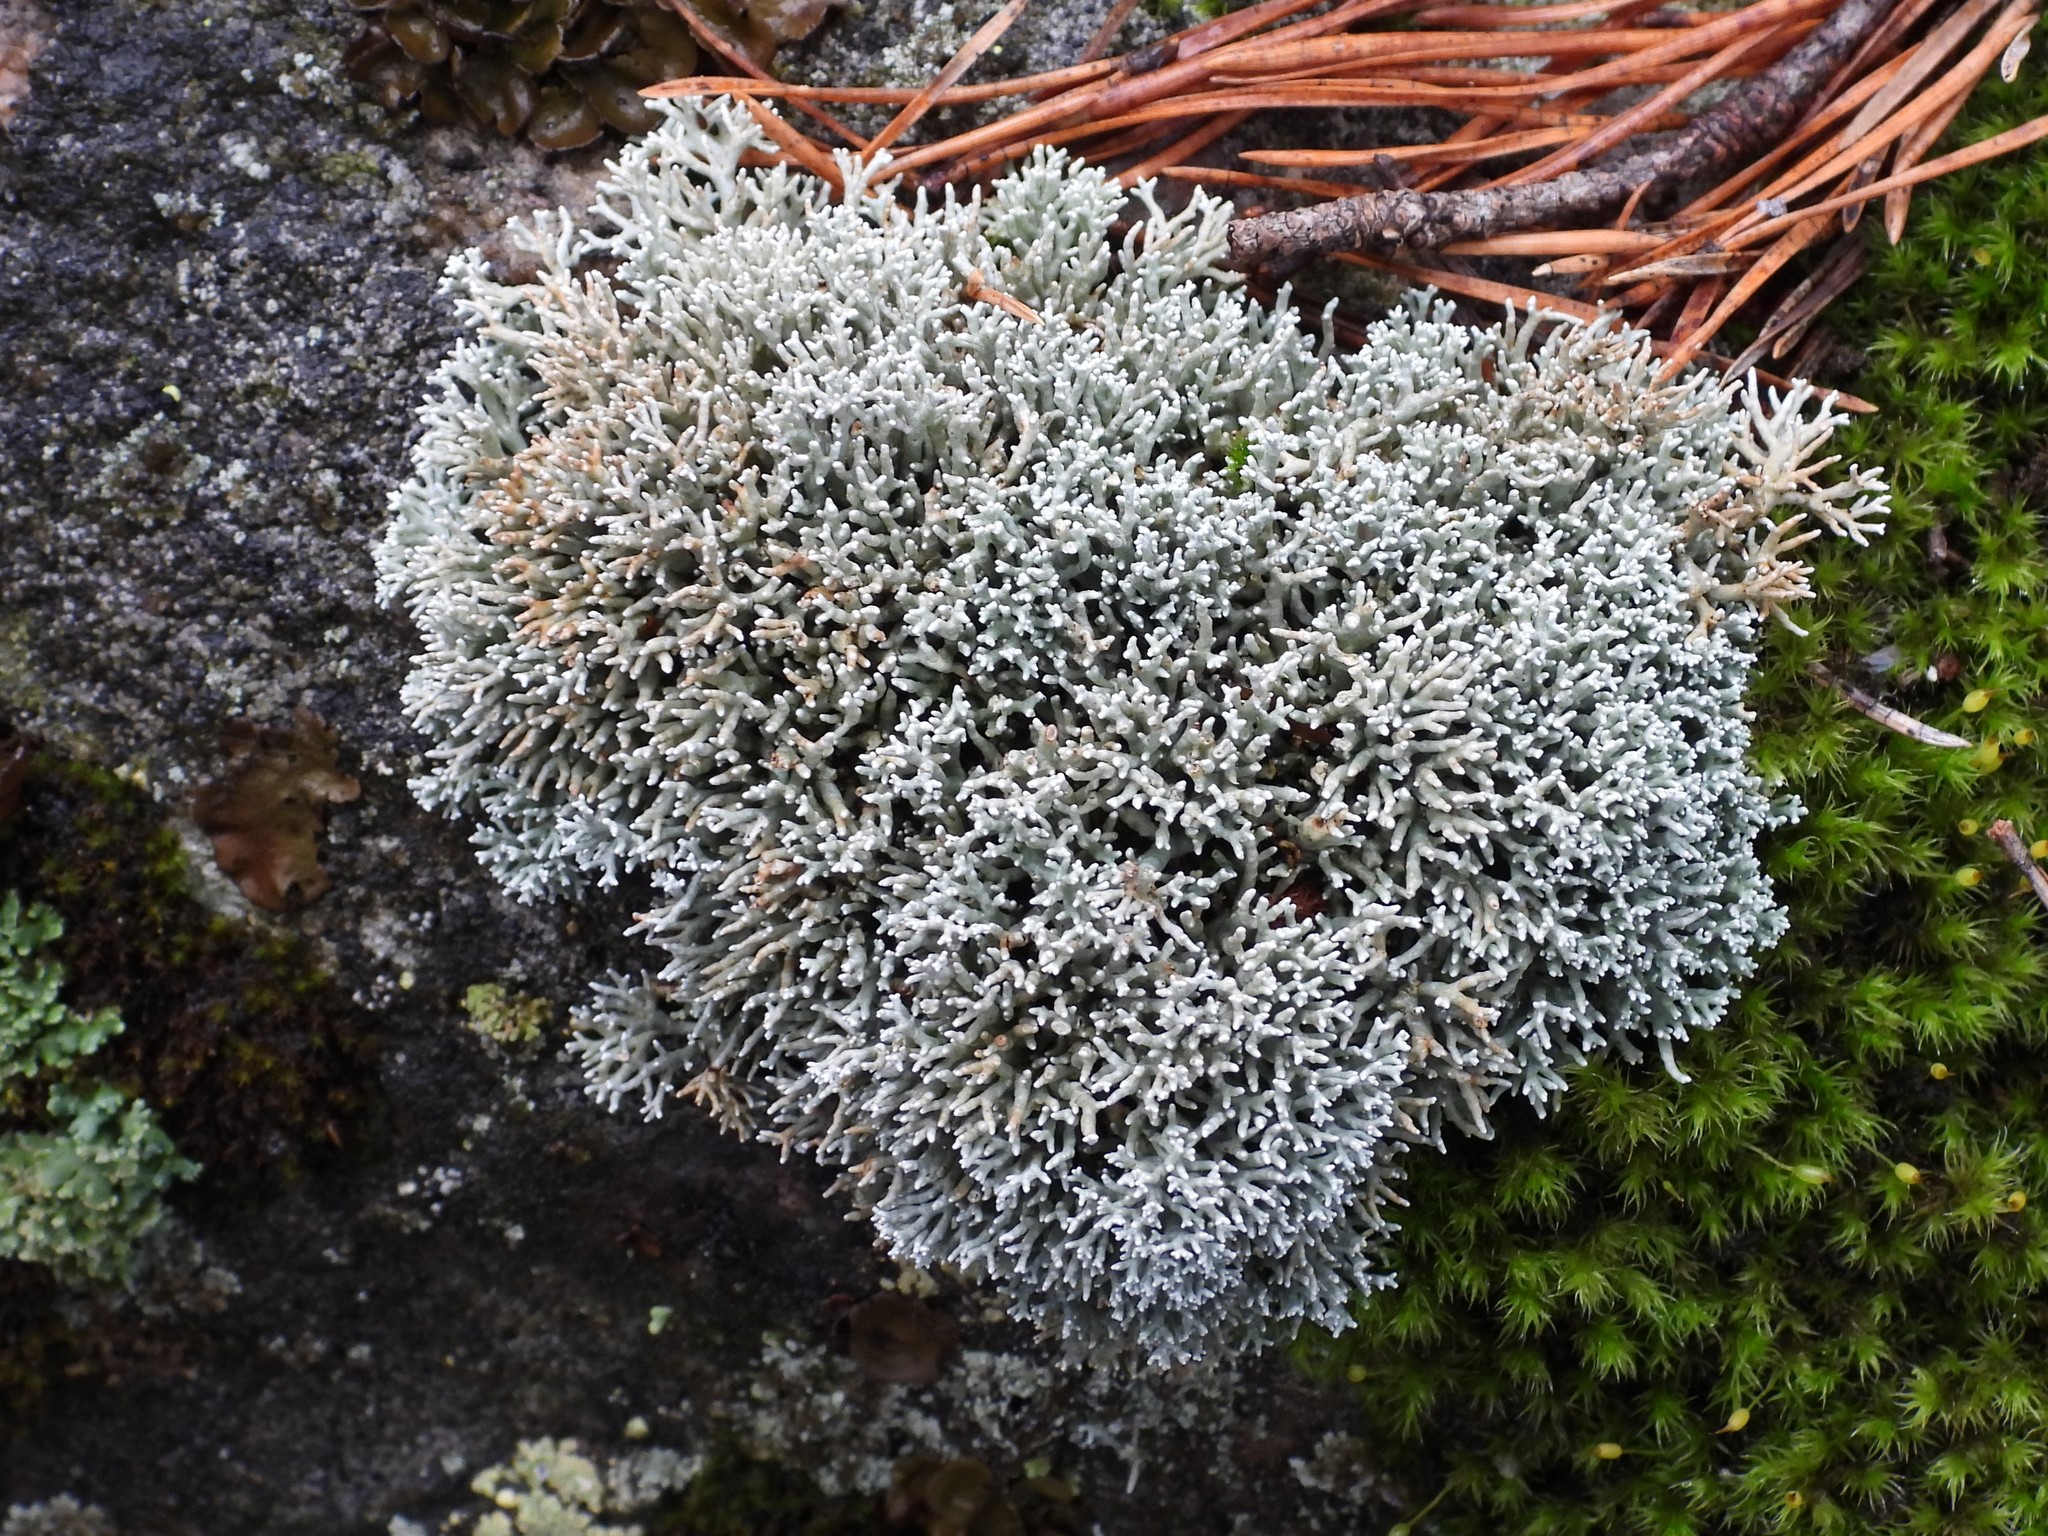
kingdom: Fungi
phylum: Ascomycota
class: Lecanoromycetes
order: Lecanorales
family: Sphaerophoraceae
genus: Sphaerophorus
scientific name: Sphaerophorus fragilis
